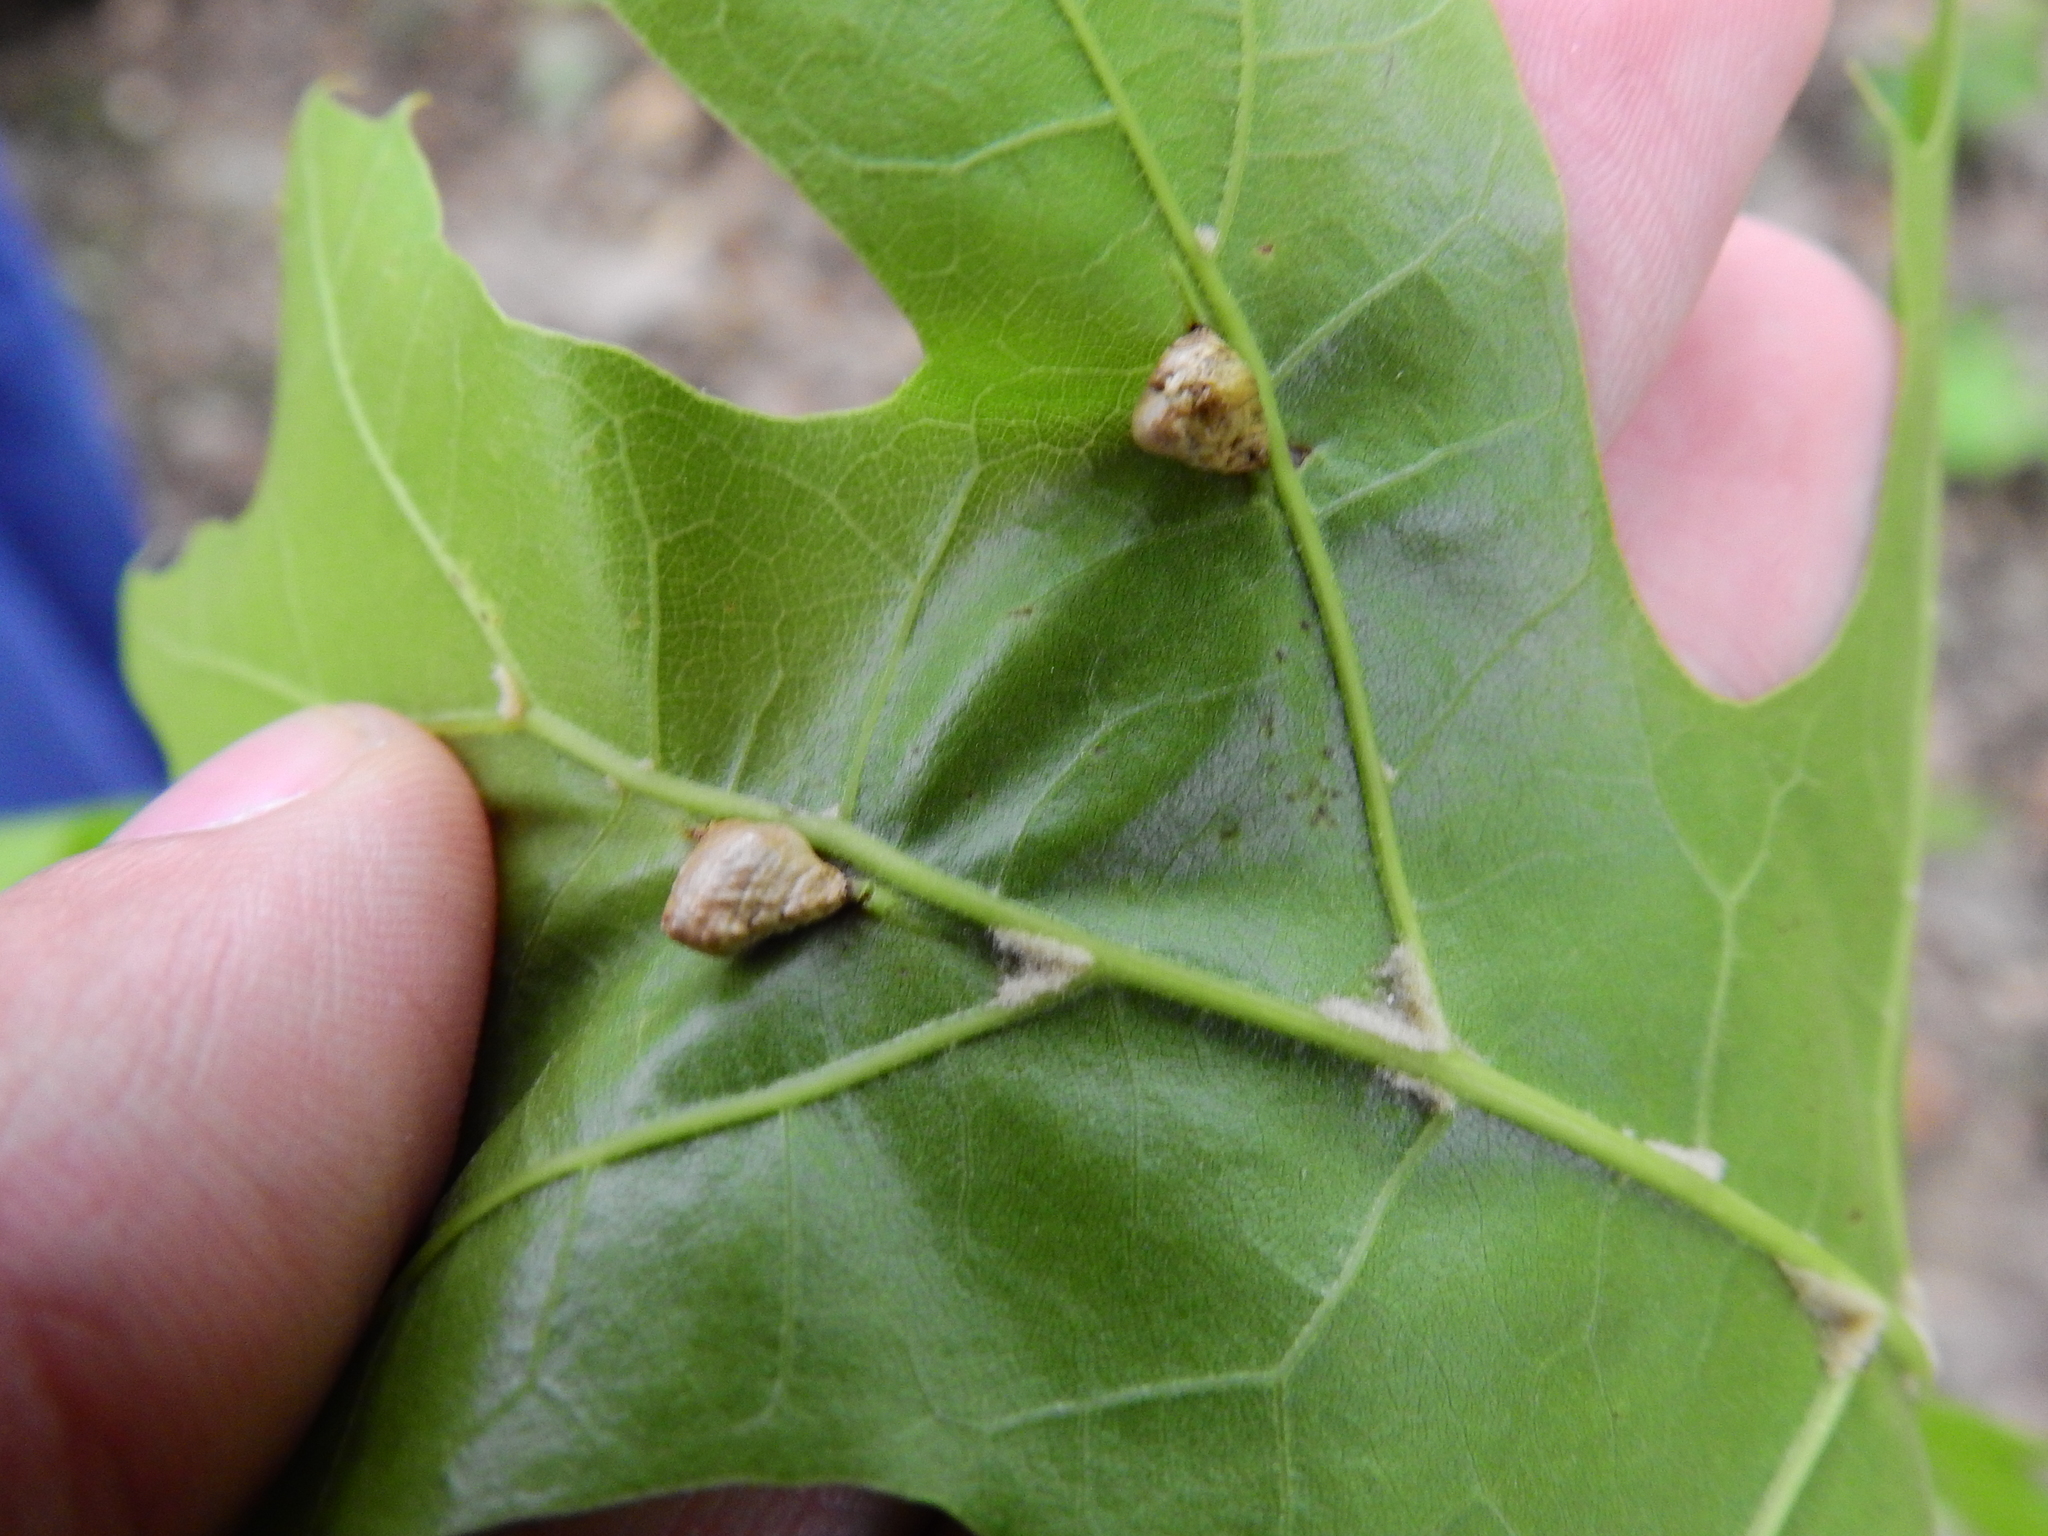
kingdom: Animalia
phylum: Arthropoda
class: Insecta
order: Diptera
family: Cecidomyiidae
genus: Macrodiplosis
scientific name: Macrodiplosis majalis
